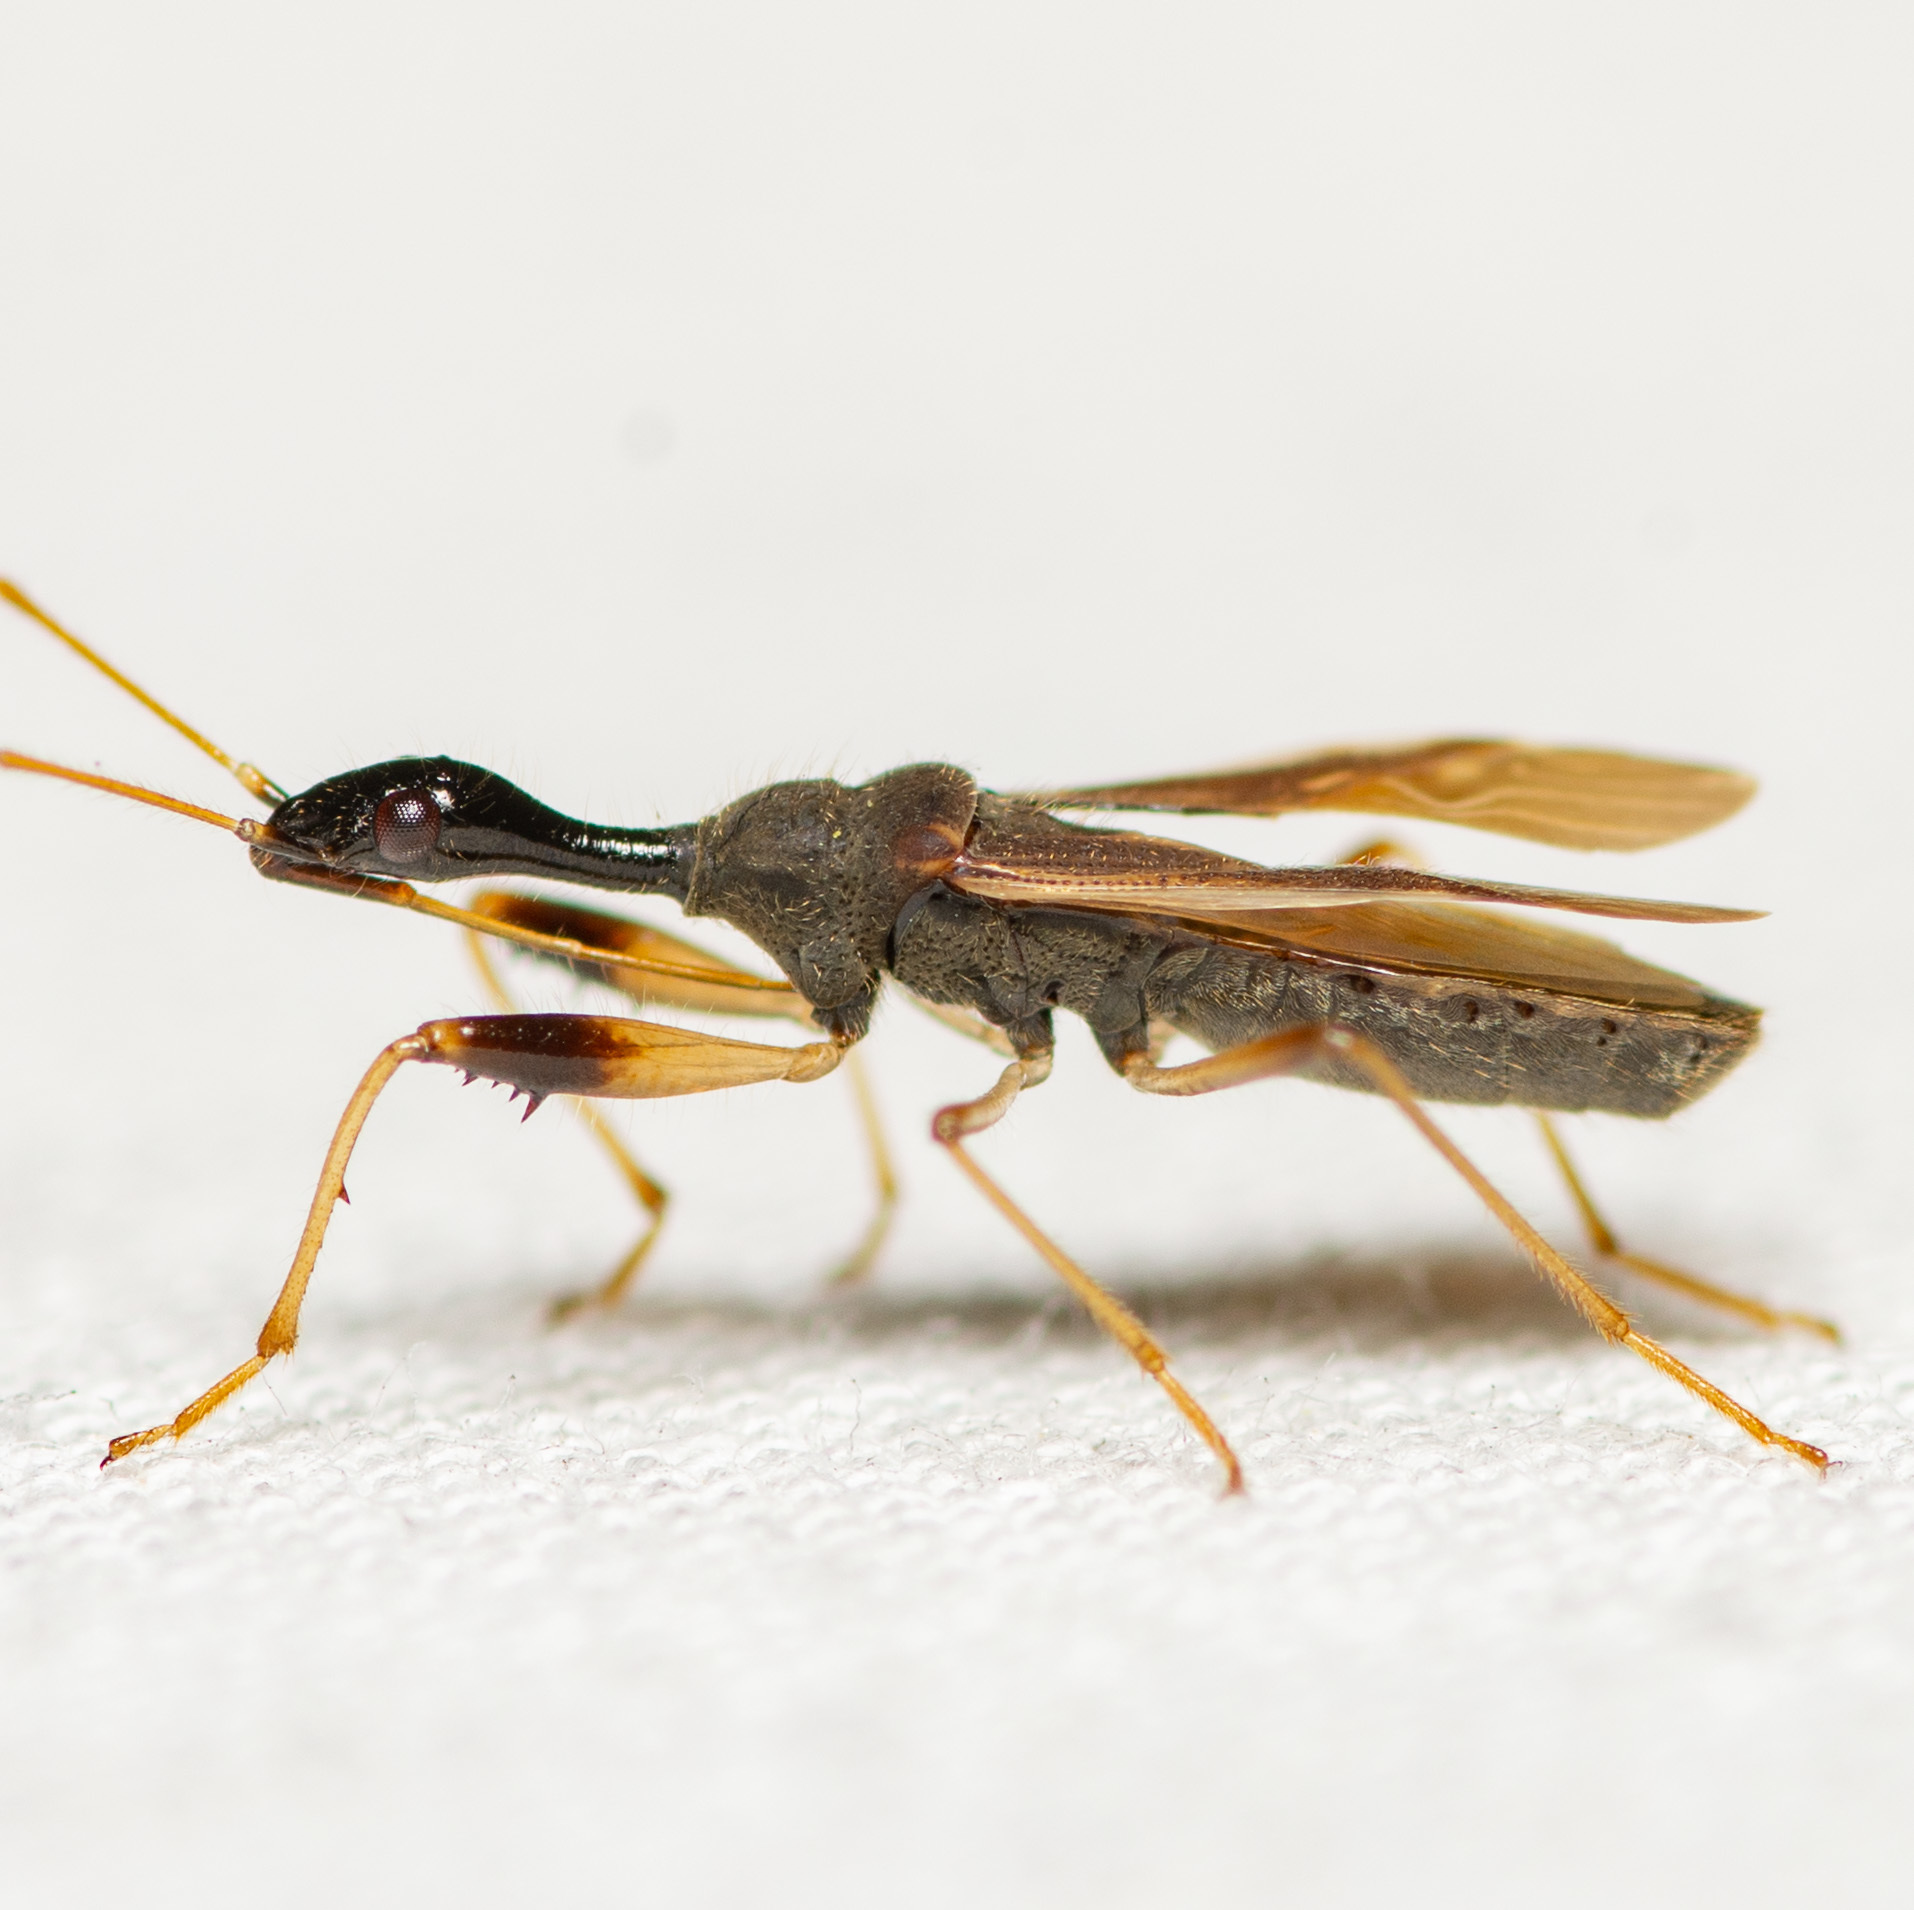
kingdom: Animalia
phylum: Arthropoda
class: Insecta
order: Hemiptera
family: Rhyparochromidae
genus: Myodocha
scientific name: Myodocha serripes
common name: Long-necked seed bug
